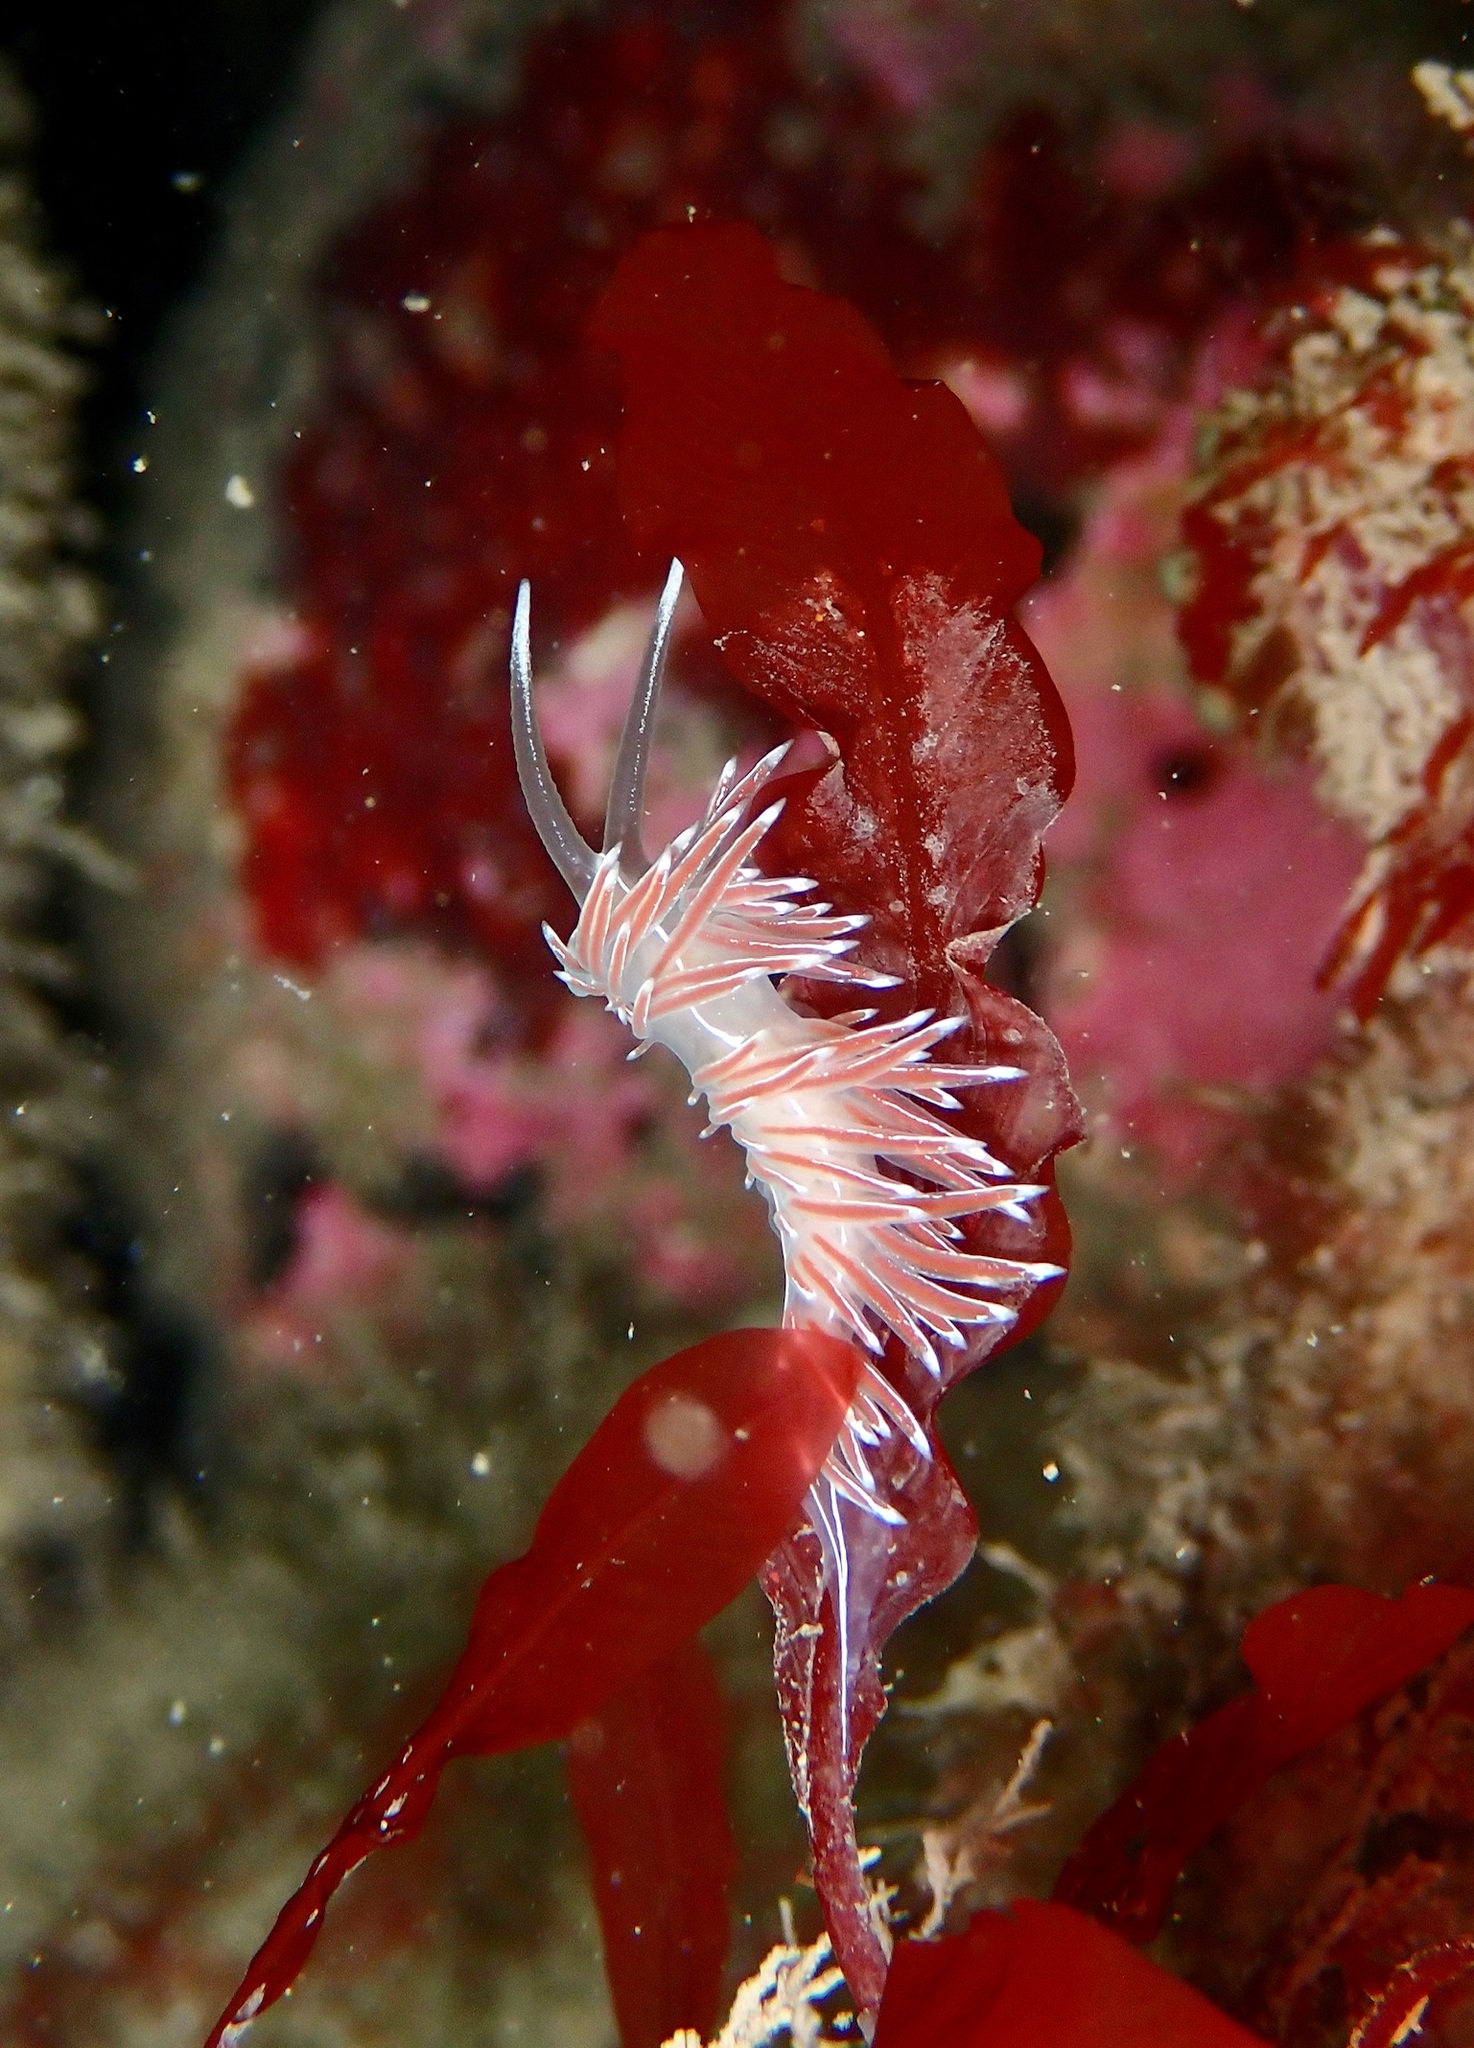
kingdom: Animalia
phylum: Mollusca
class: Gastropoda
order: Nudibranchia
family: Coryphellidae
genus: Coryphella
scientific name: Coryphella lineata
